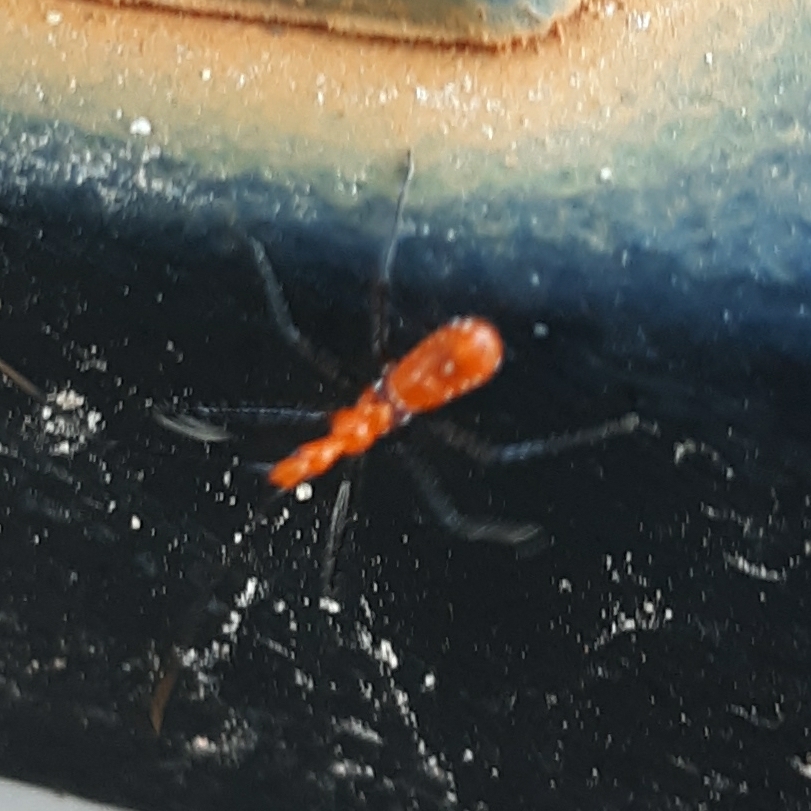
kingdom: Animalia
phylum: Arthropoda
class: Insecta
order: Hemiptera
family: Reduviidae
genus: Zelus
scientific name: Zelus longipes
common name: Milkweed assassin bug
